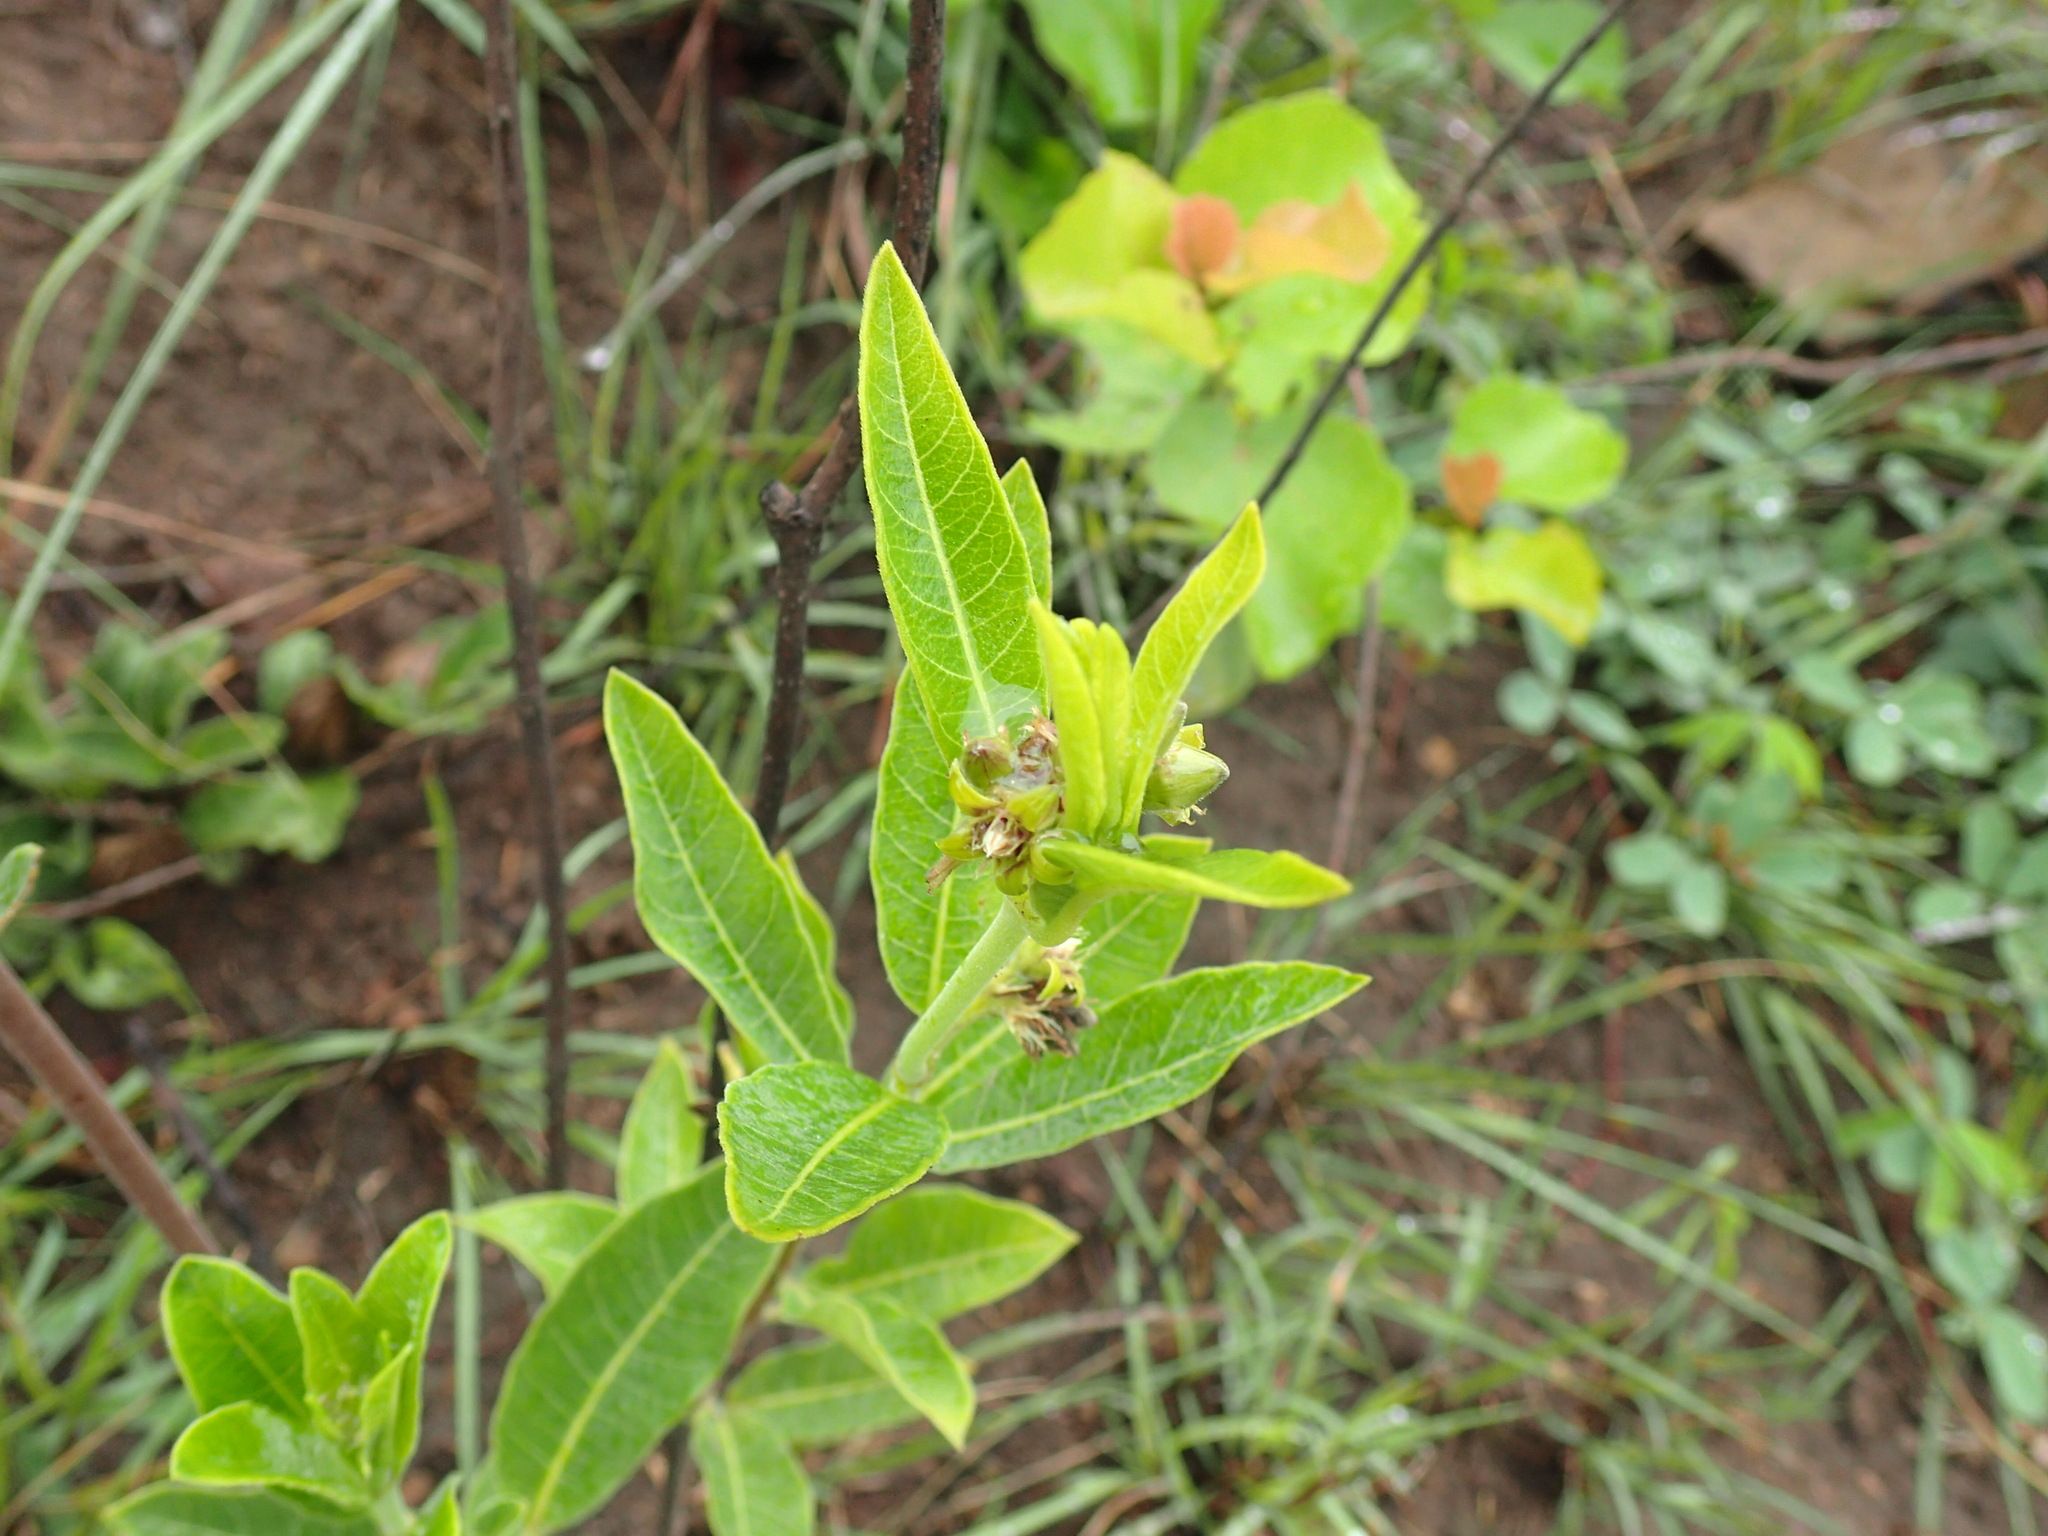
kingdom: Plantae
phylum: Tracheophyta
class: Magnoliopsida
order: Gentianales
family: Apocynaceae
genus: Raphionacme
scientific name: Raphionacme galpinii
